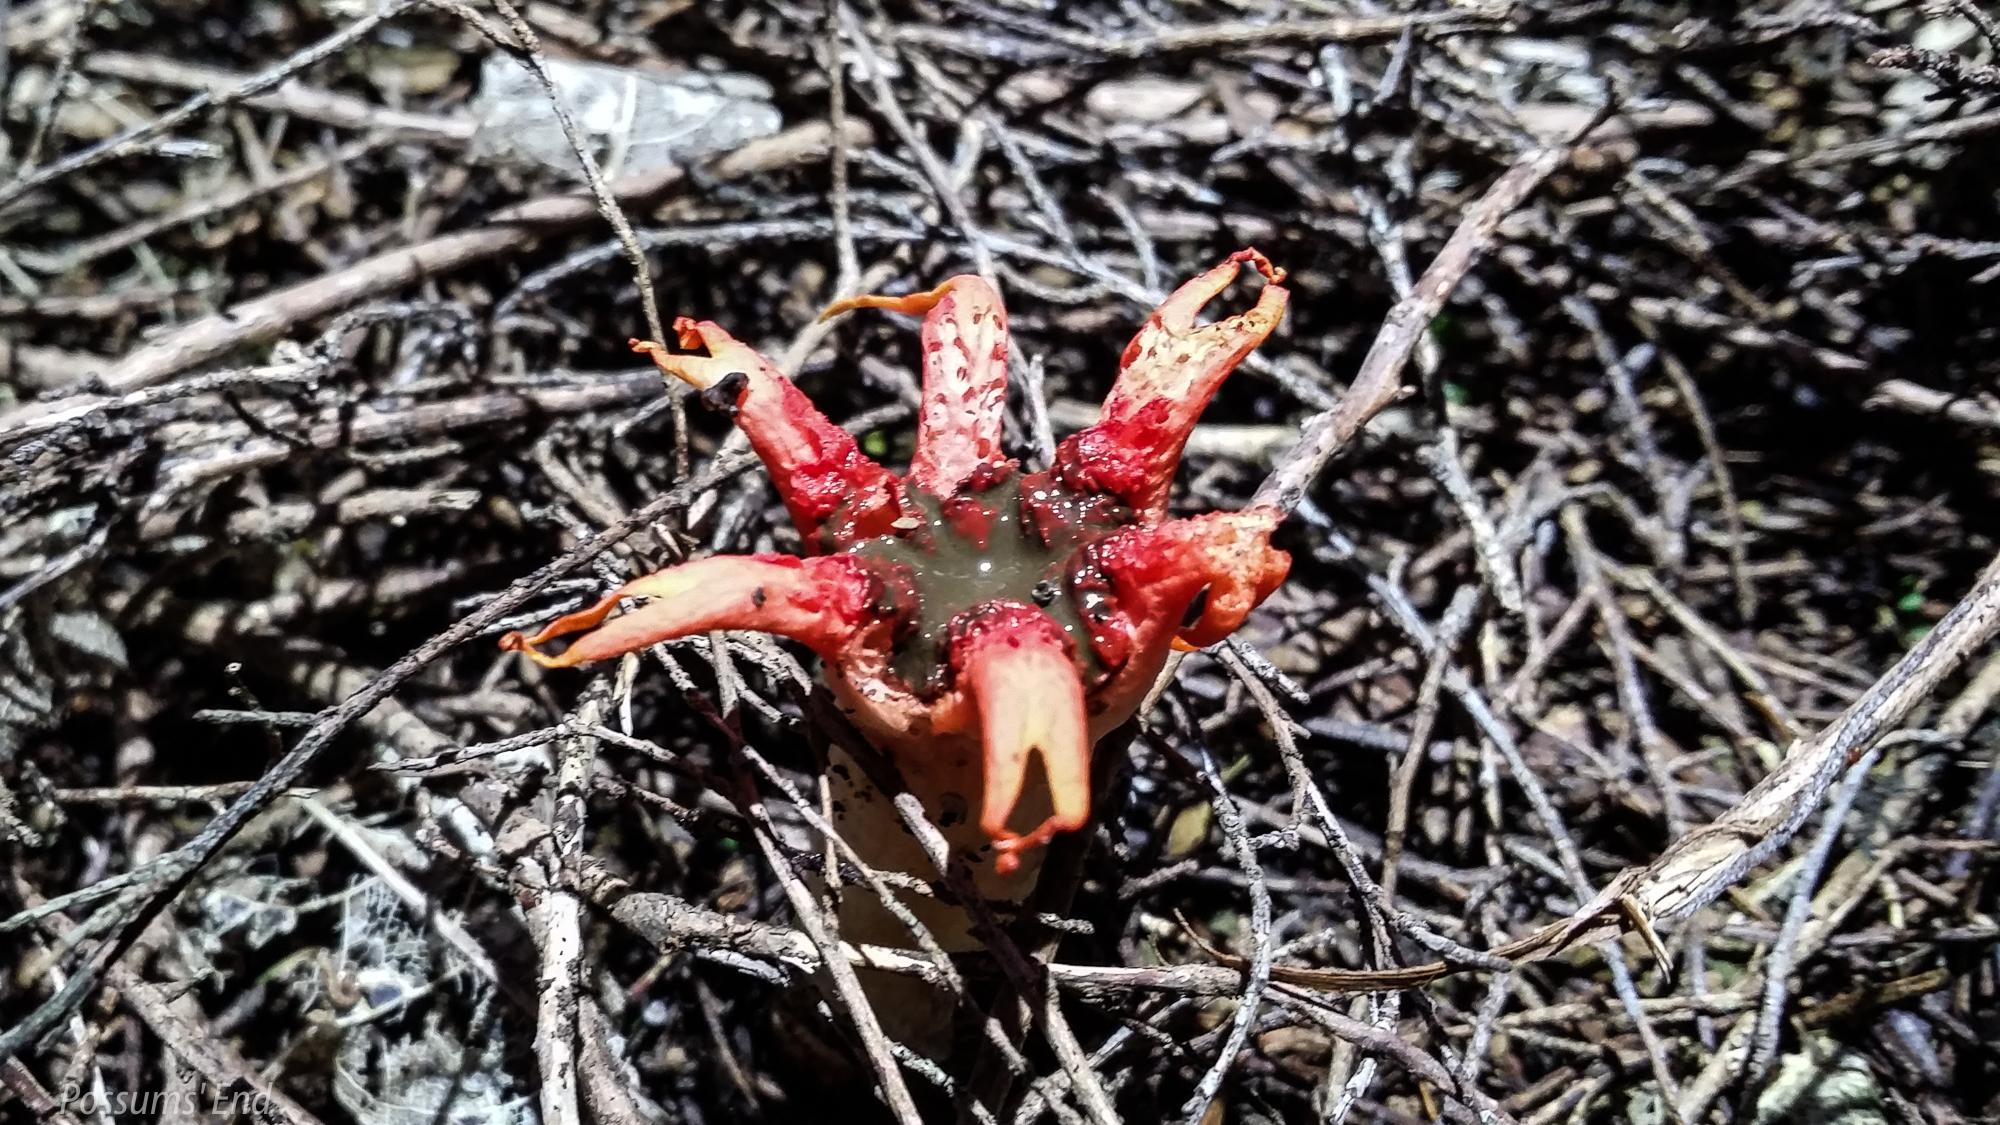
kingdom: Fungi
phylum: Basidiomycota
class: Agaricomycetes
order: Phallales
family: Phallaceae
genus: Aseroe
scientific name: Aseroe rubra
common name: Starfish fungus
